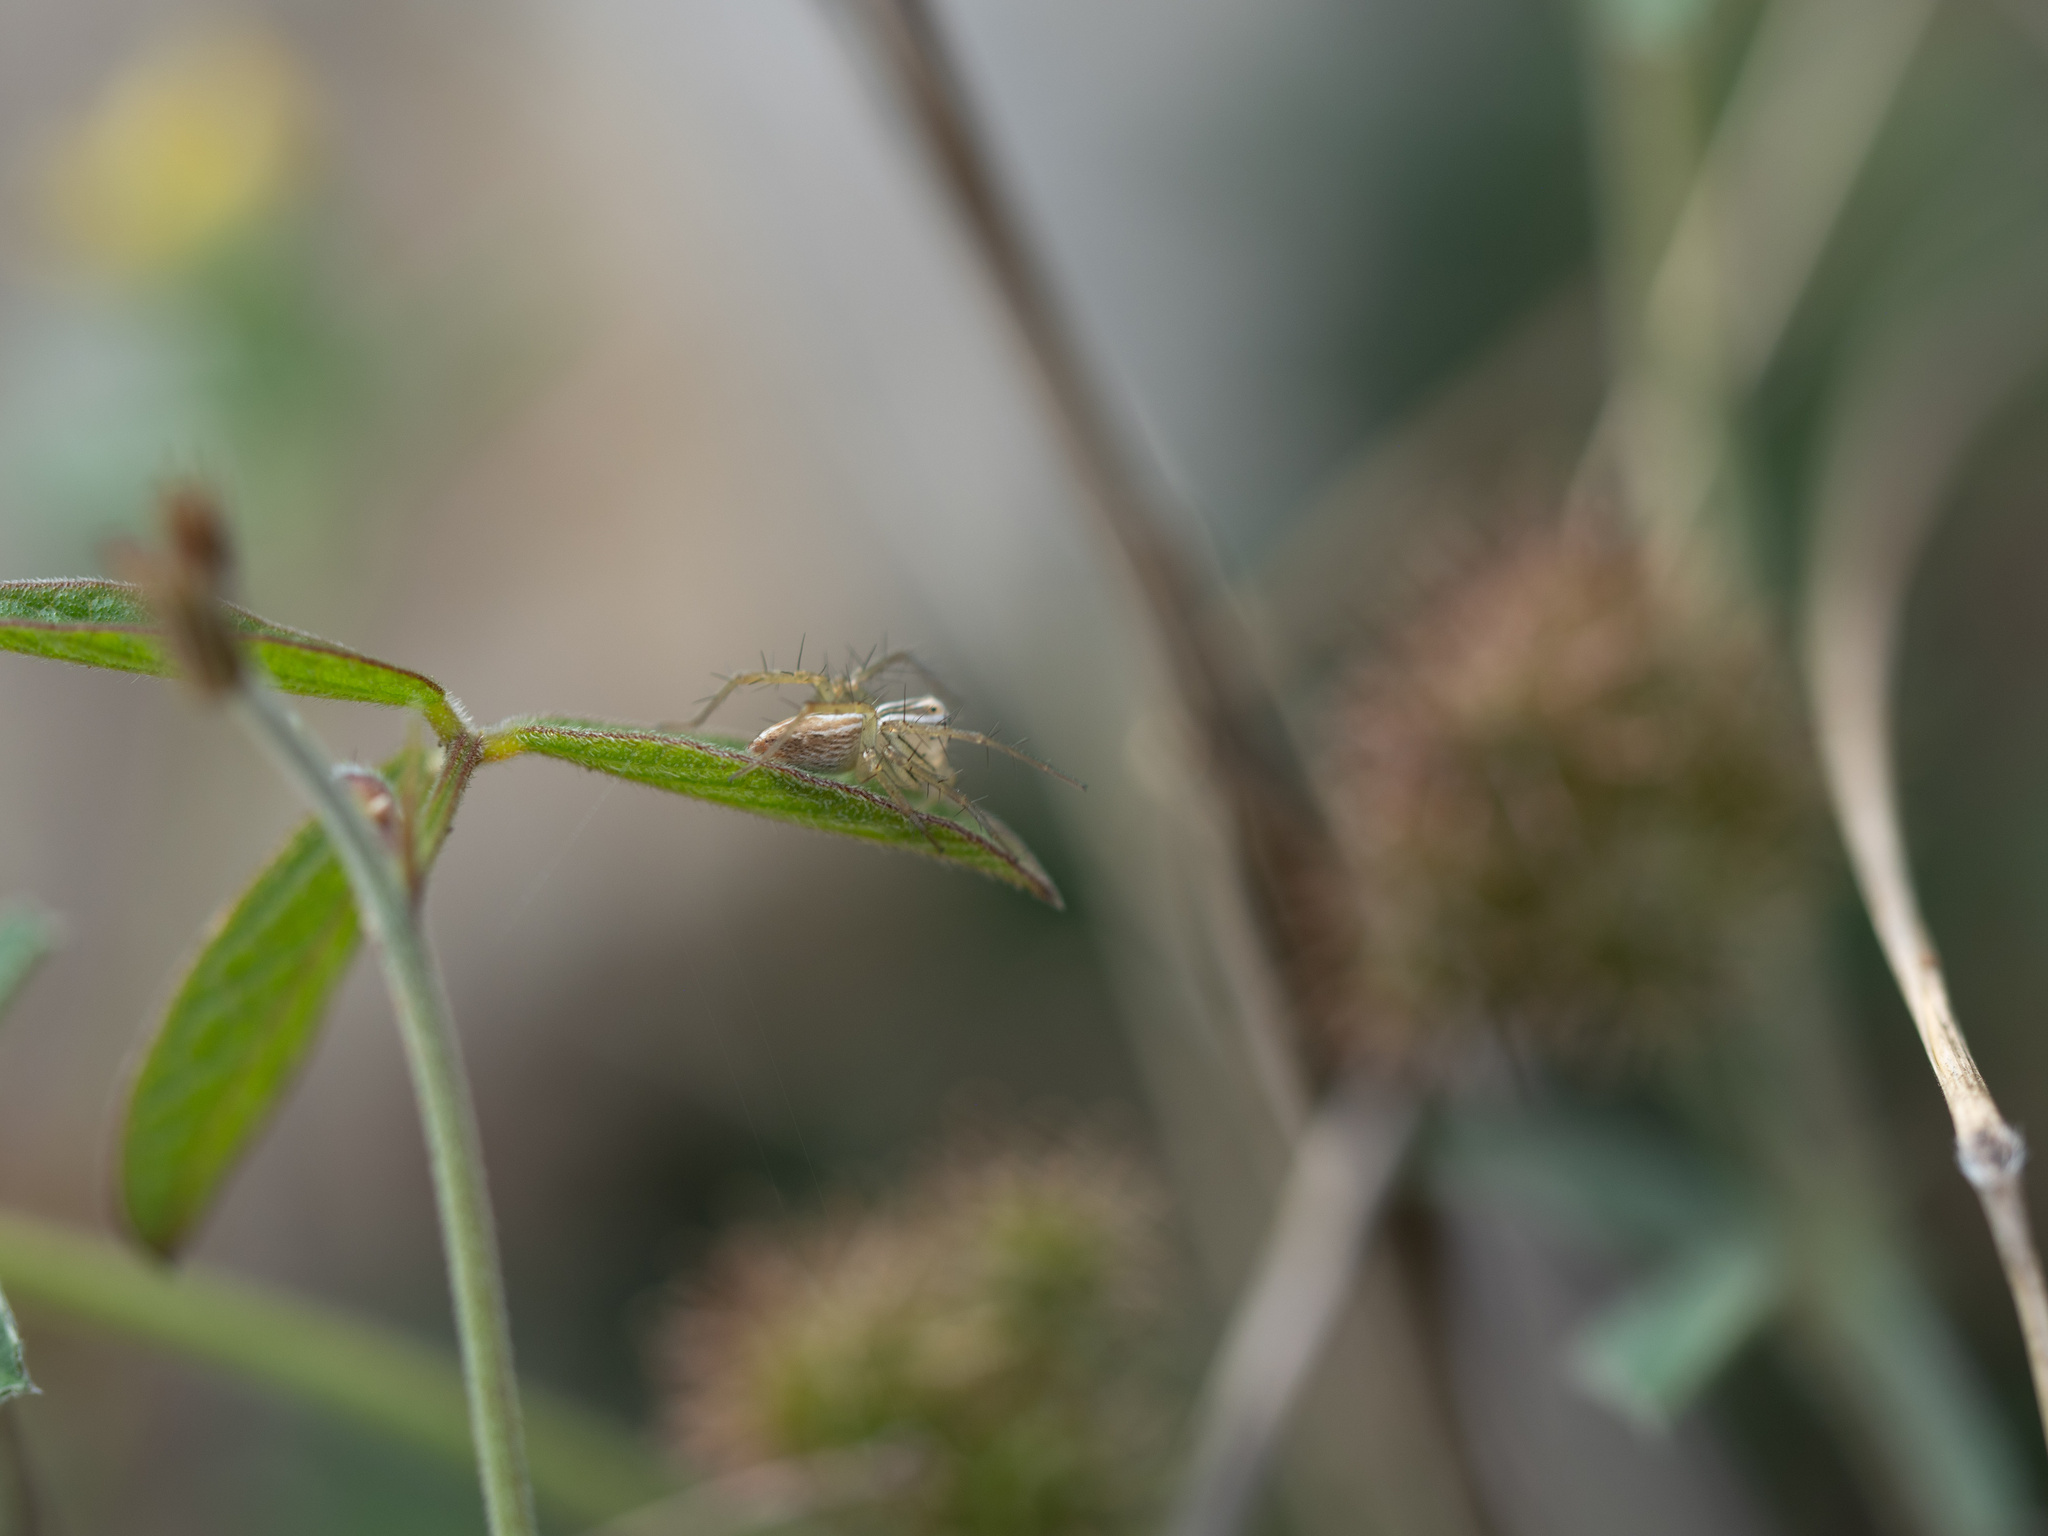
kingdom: Animalia
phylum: Arthropoda
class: Arachnida
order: Araneae
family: Oxyopidae
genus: Oxyopes
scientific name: Oxyopes salticus
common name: Lynx spiders
